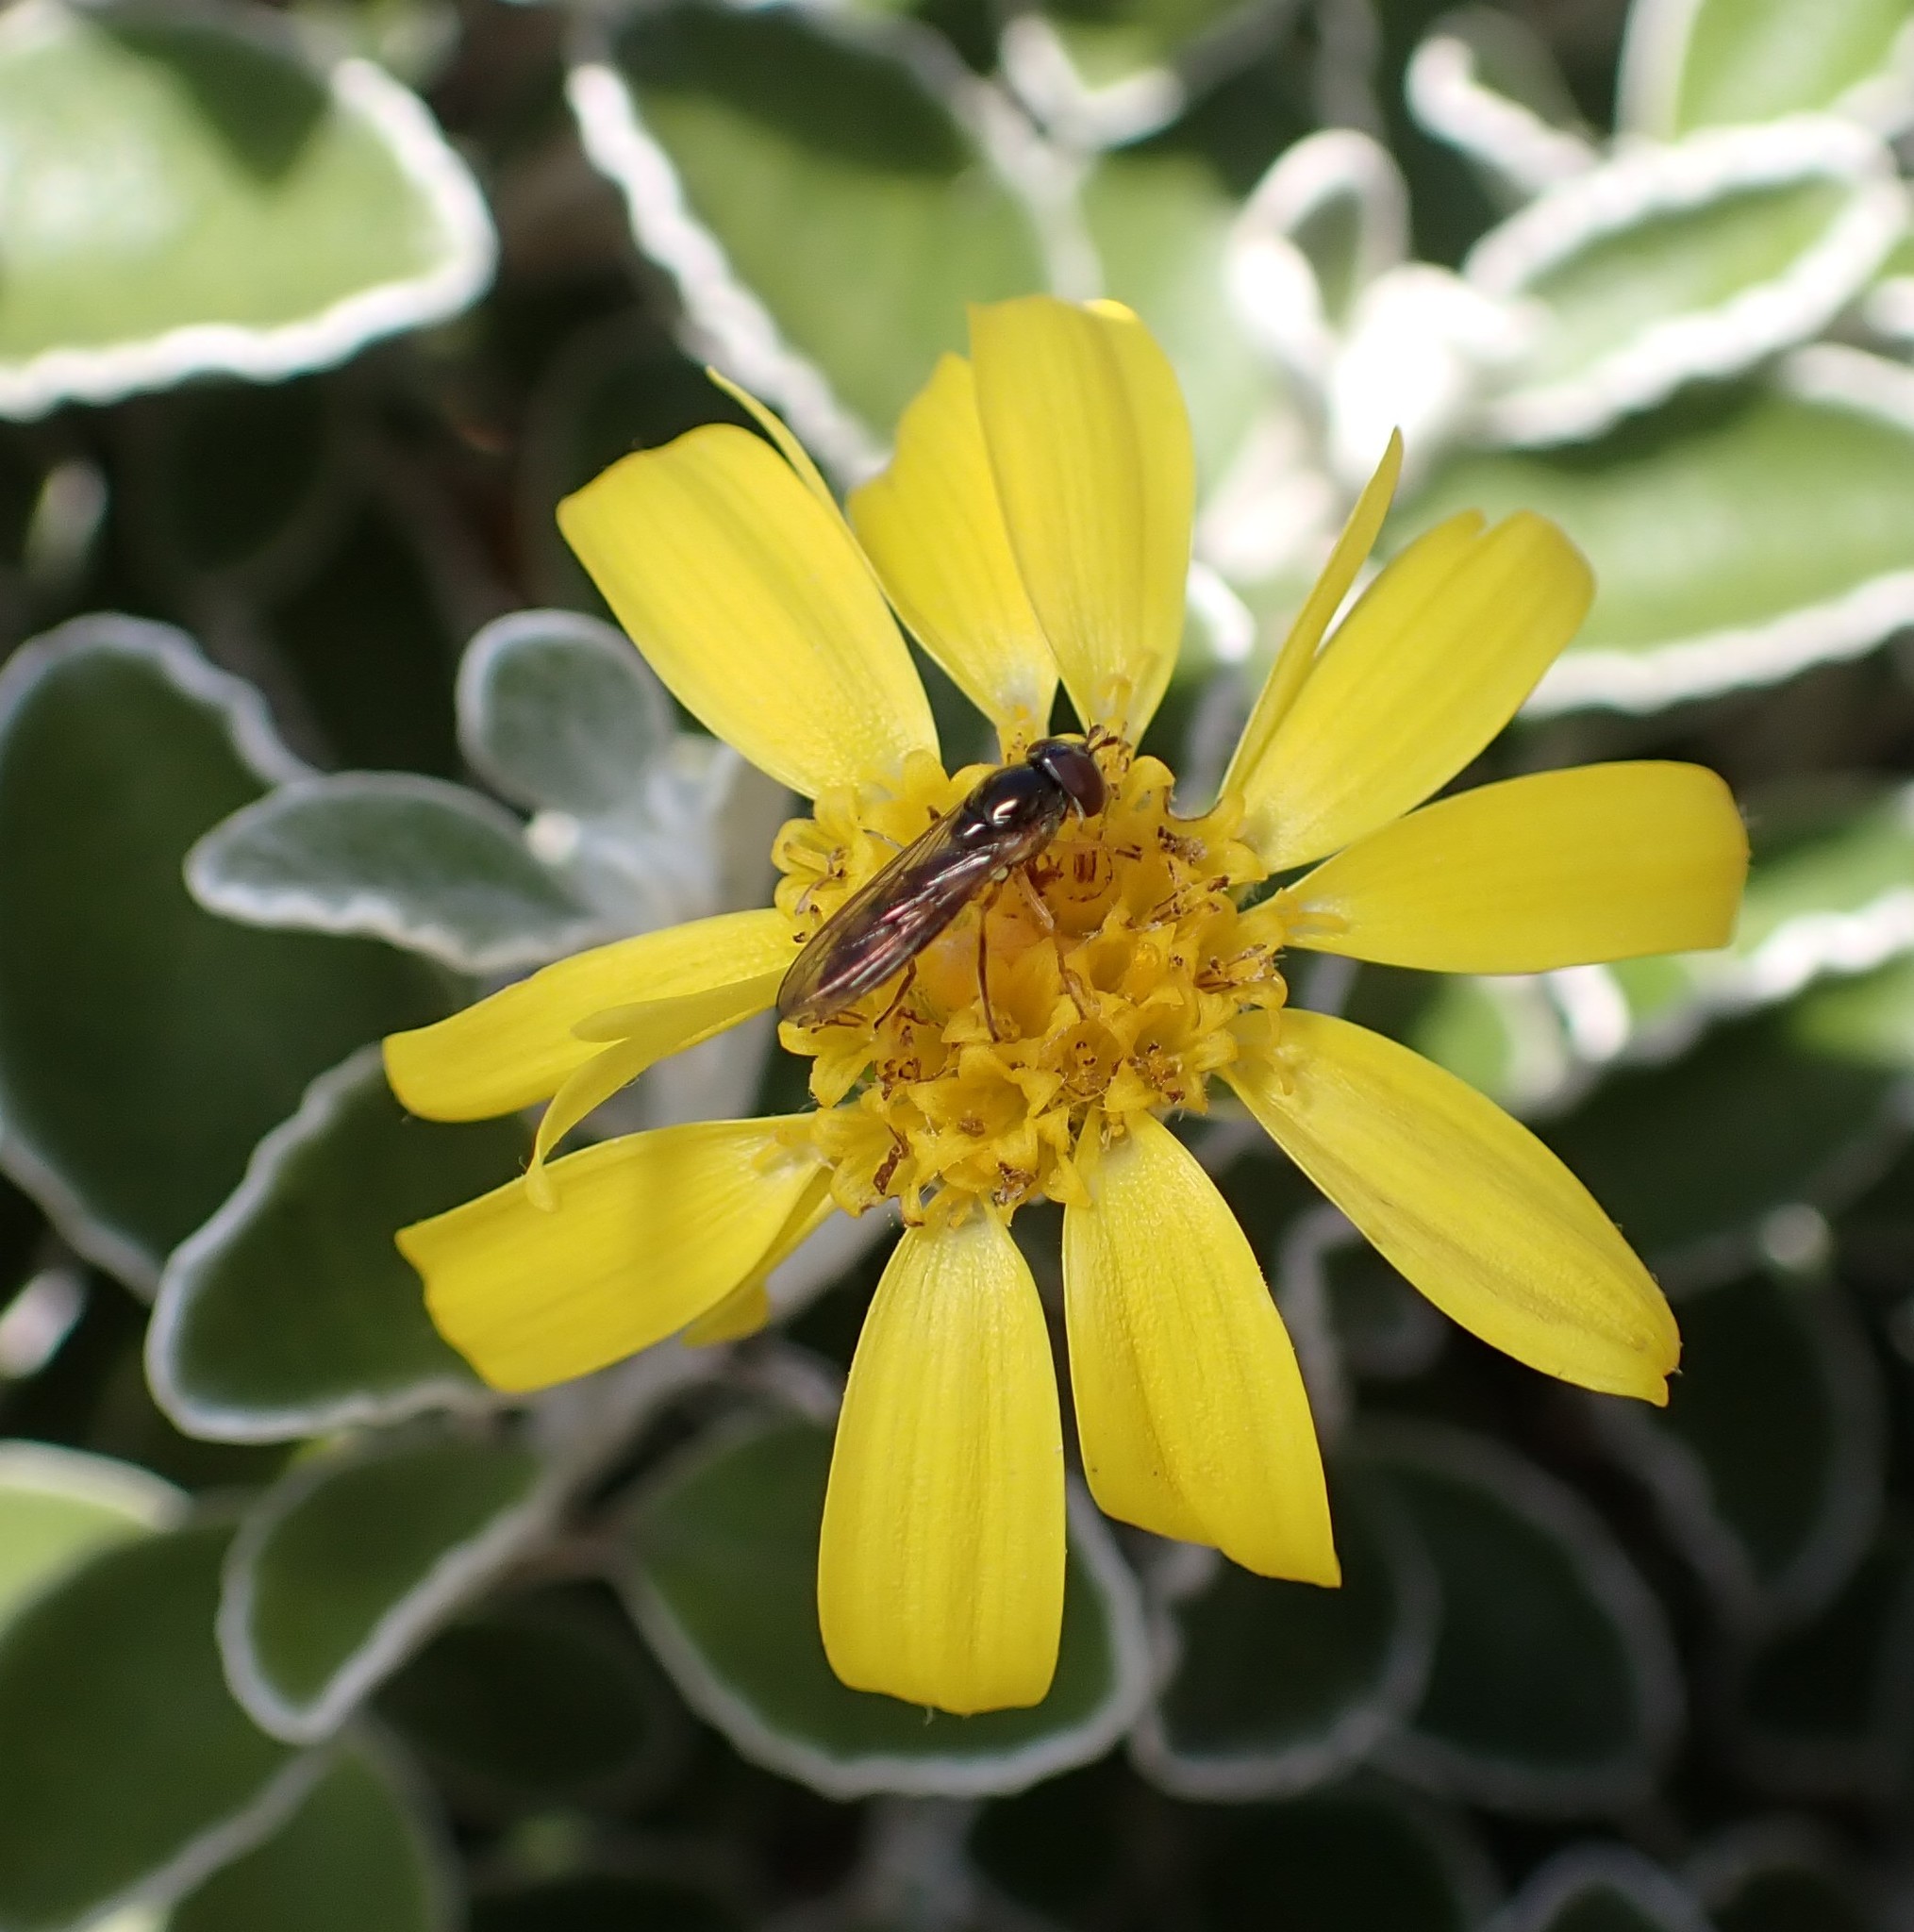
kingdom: Animalia
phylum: Arthropoda
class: Insecta
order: Diptera
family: Syrphidae
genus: Melanostoma
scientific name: Melanostoma fasciatum
